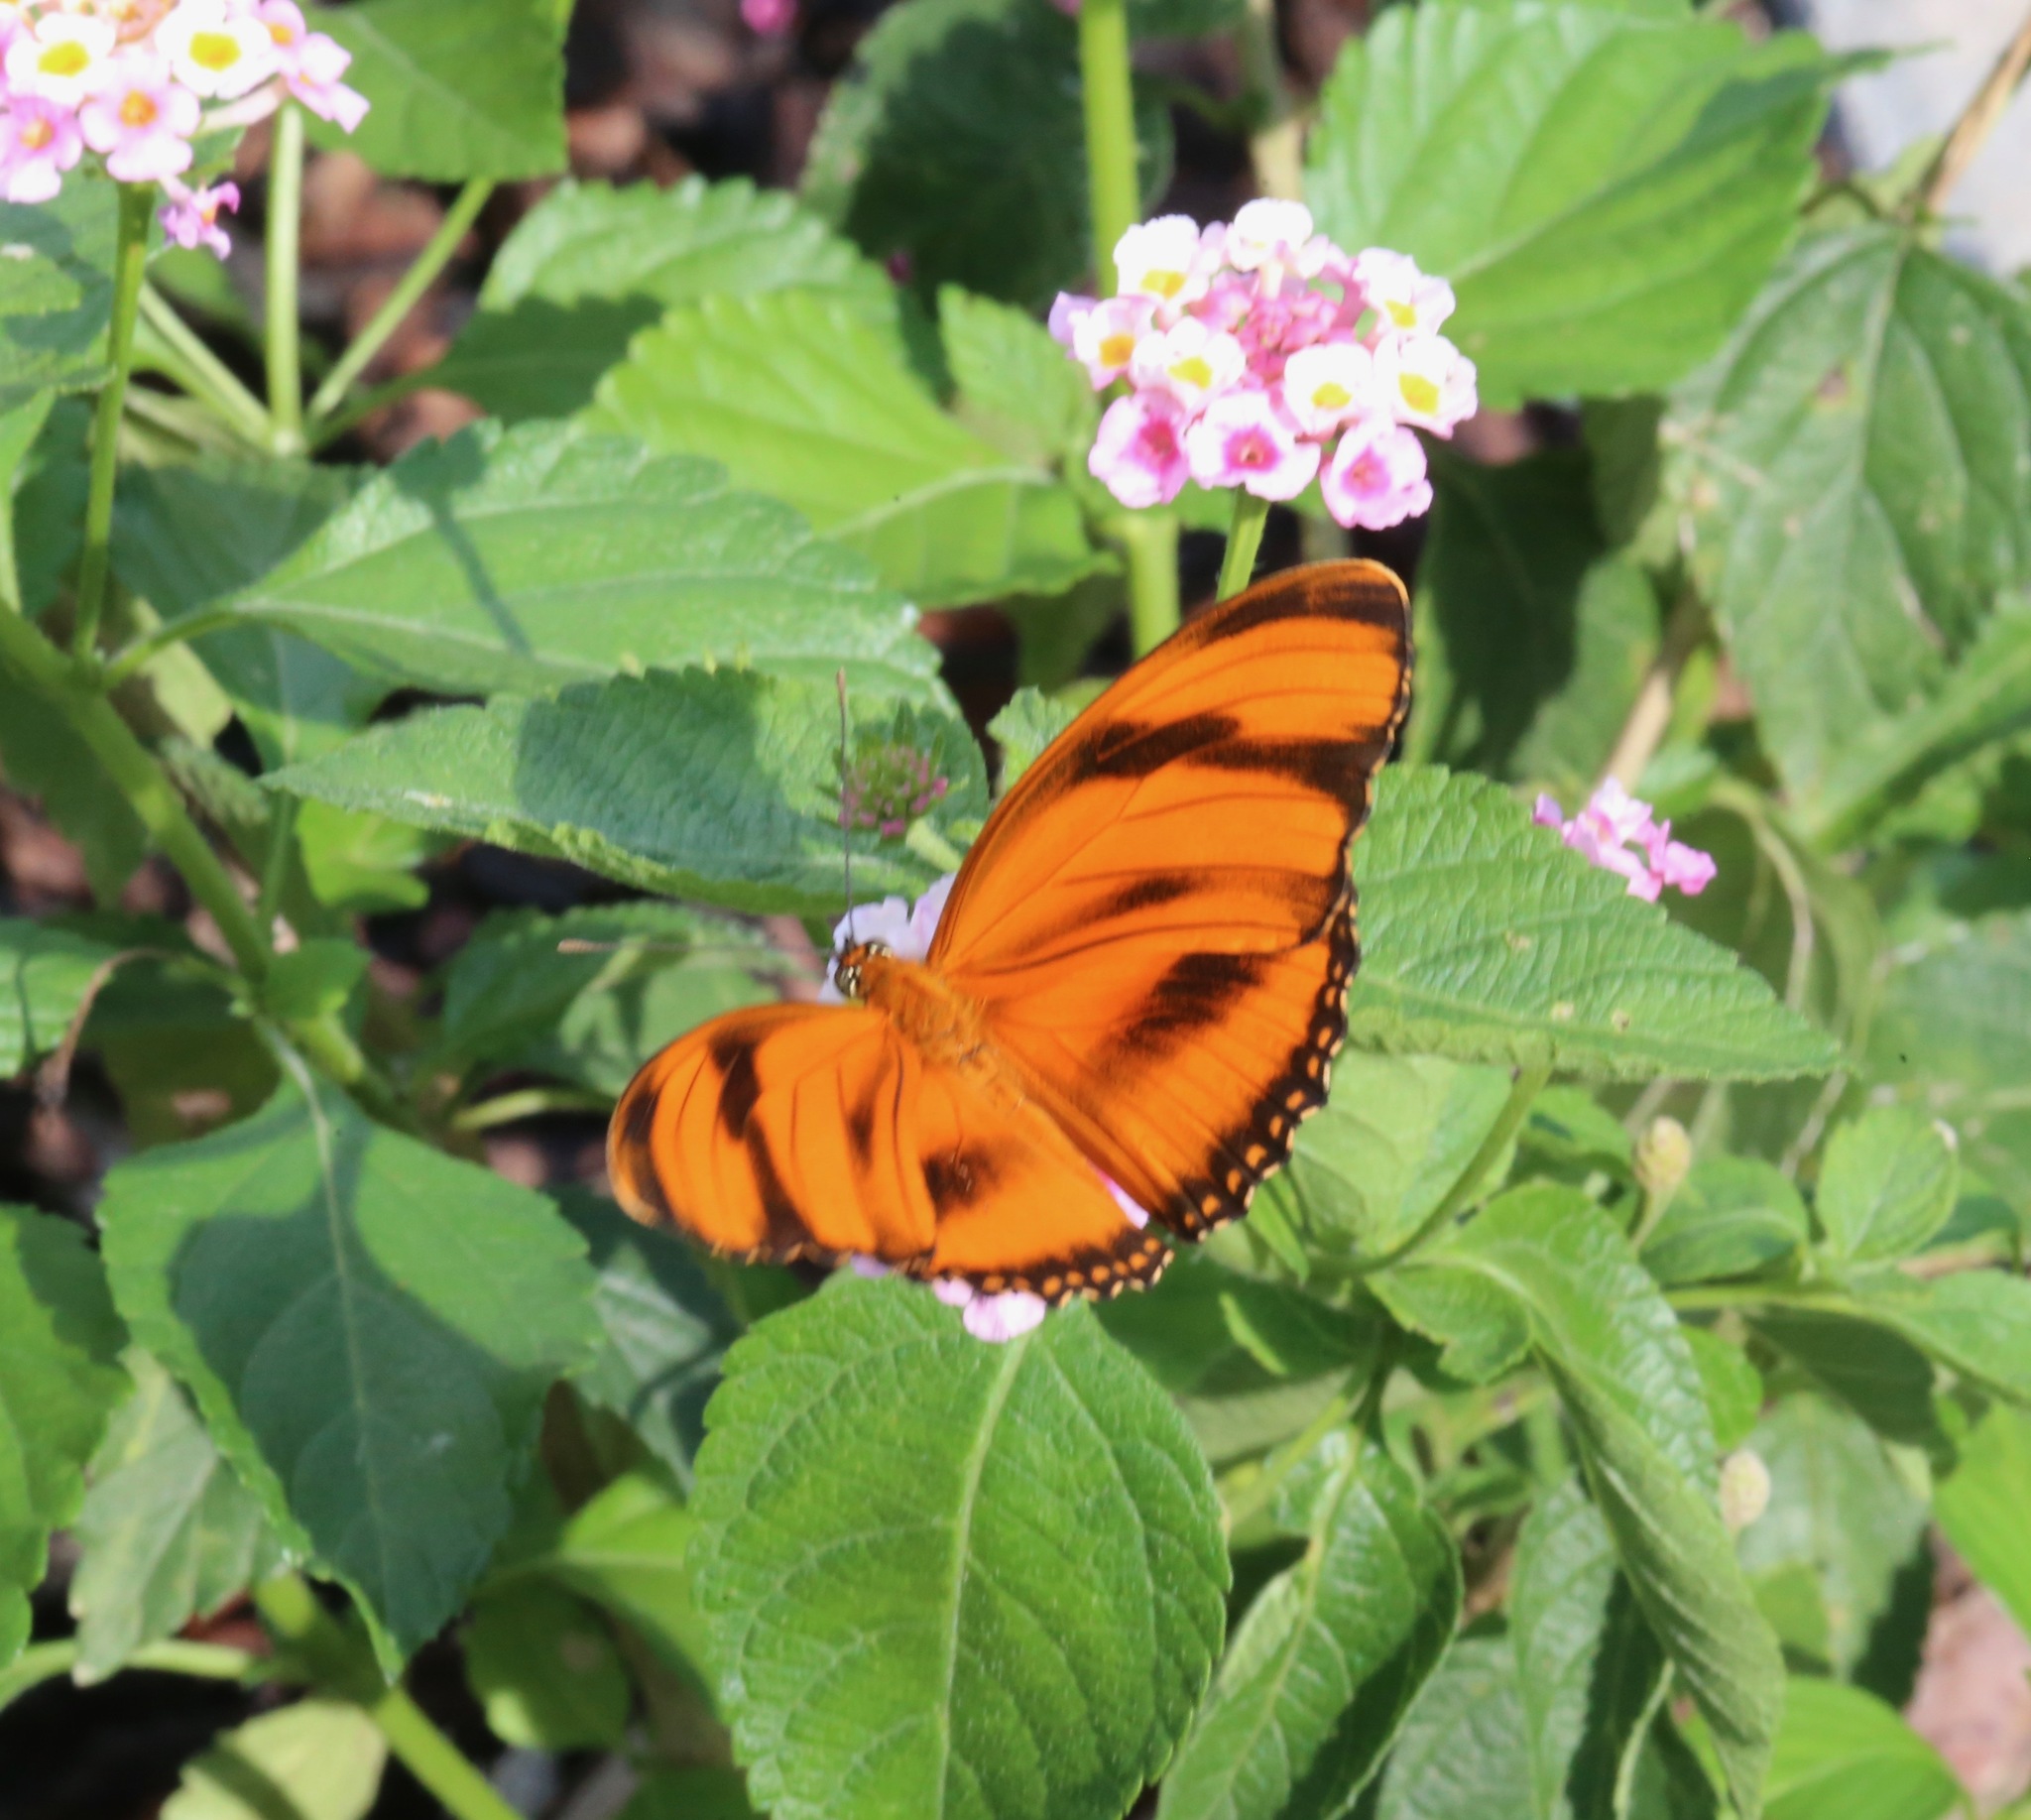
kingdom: Animalia
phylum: Arthropoda
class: Insecta
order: Lepidoptera
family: Nymphalidae
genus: Dryadula
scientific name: Dryadula phaetusa
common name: Banded orange heliconian
